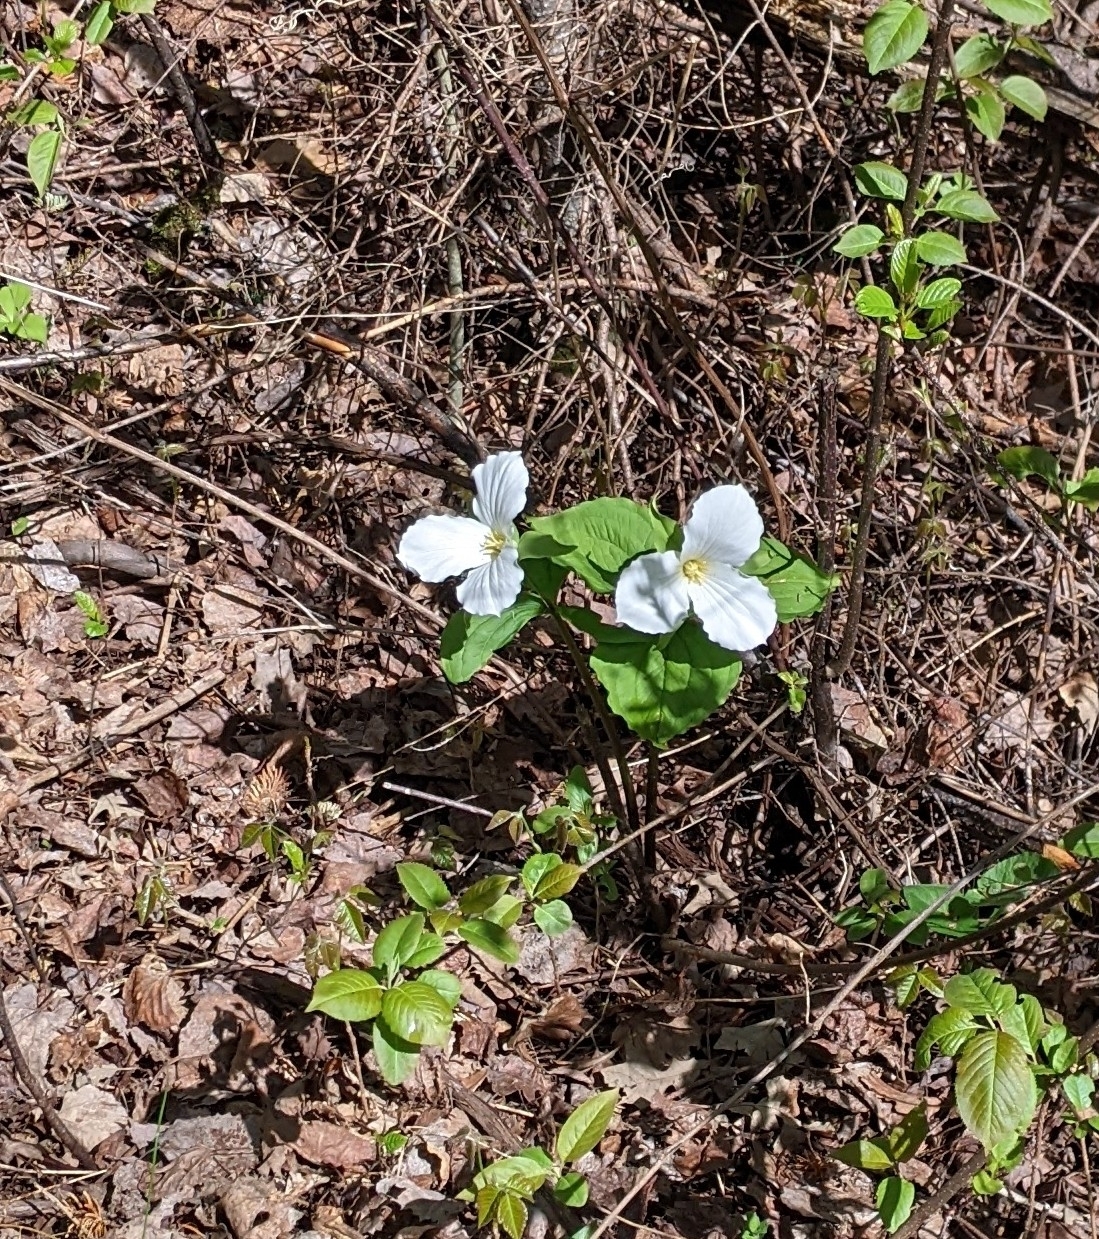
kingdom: Plantae
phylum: Tracheophyta
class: Liliopsida
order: Liliales
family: Melanthiaceae
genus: Trillium
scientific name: Trillium grandiflorum
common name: Great white trillium
